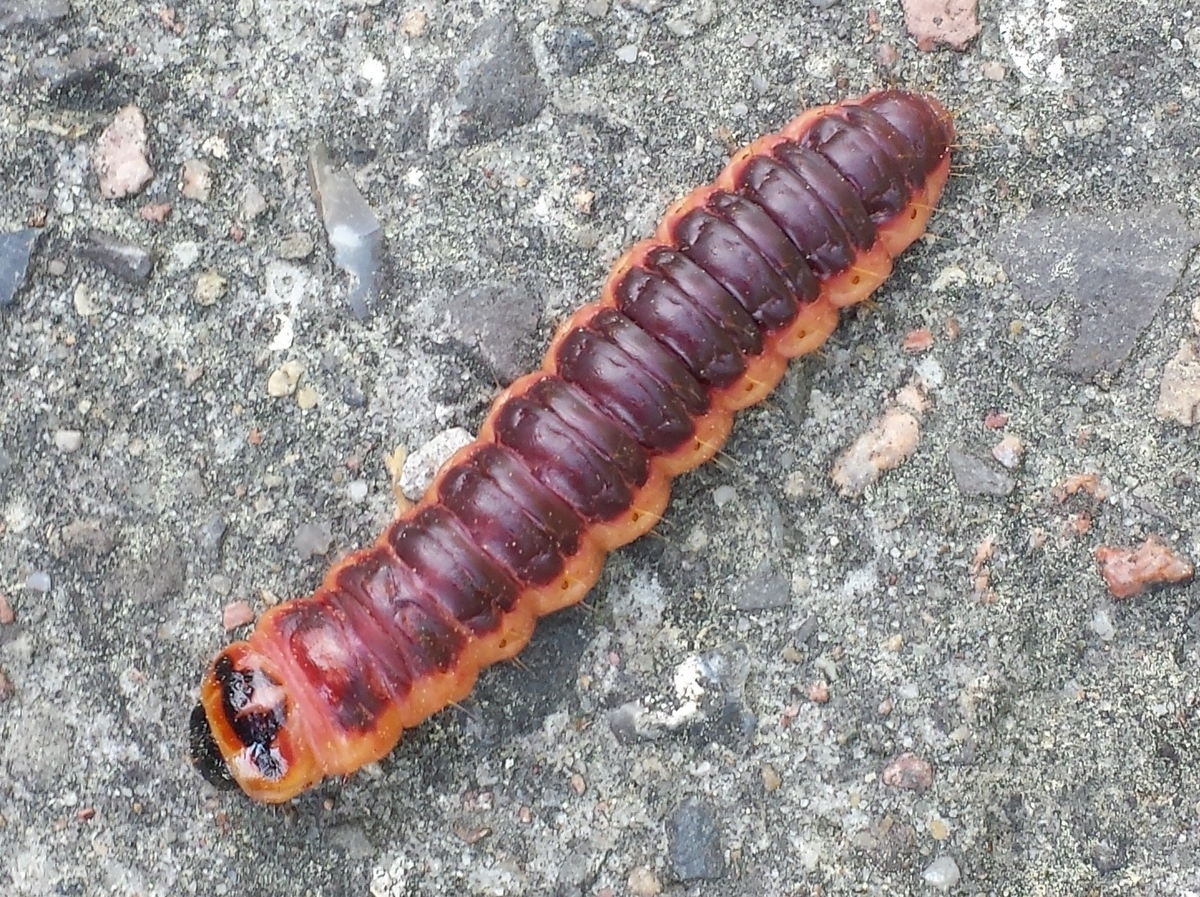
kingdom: Animalia
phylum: Arthropoda
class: Insecta
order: Lepidoptera
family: Cossidae
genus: Cossus
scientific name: Cossus cossus
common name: Goat moth
